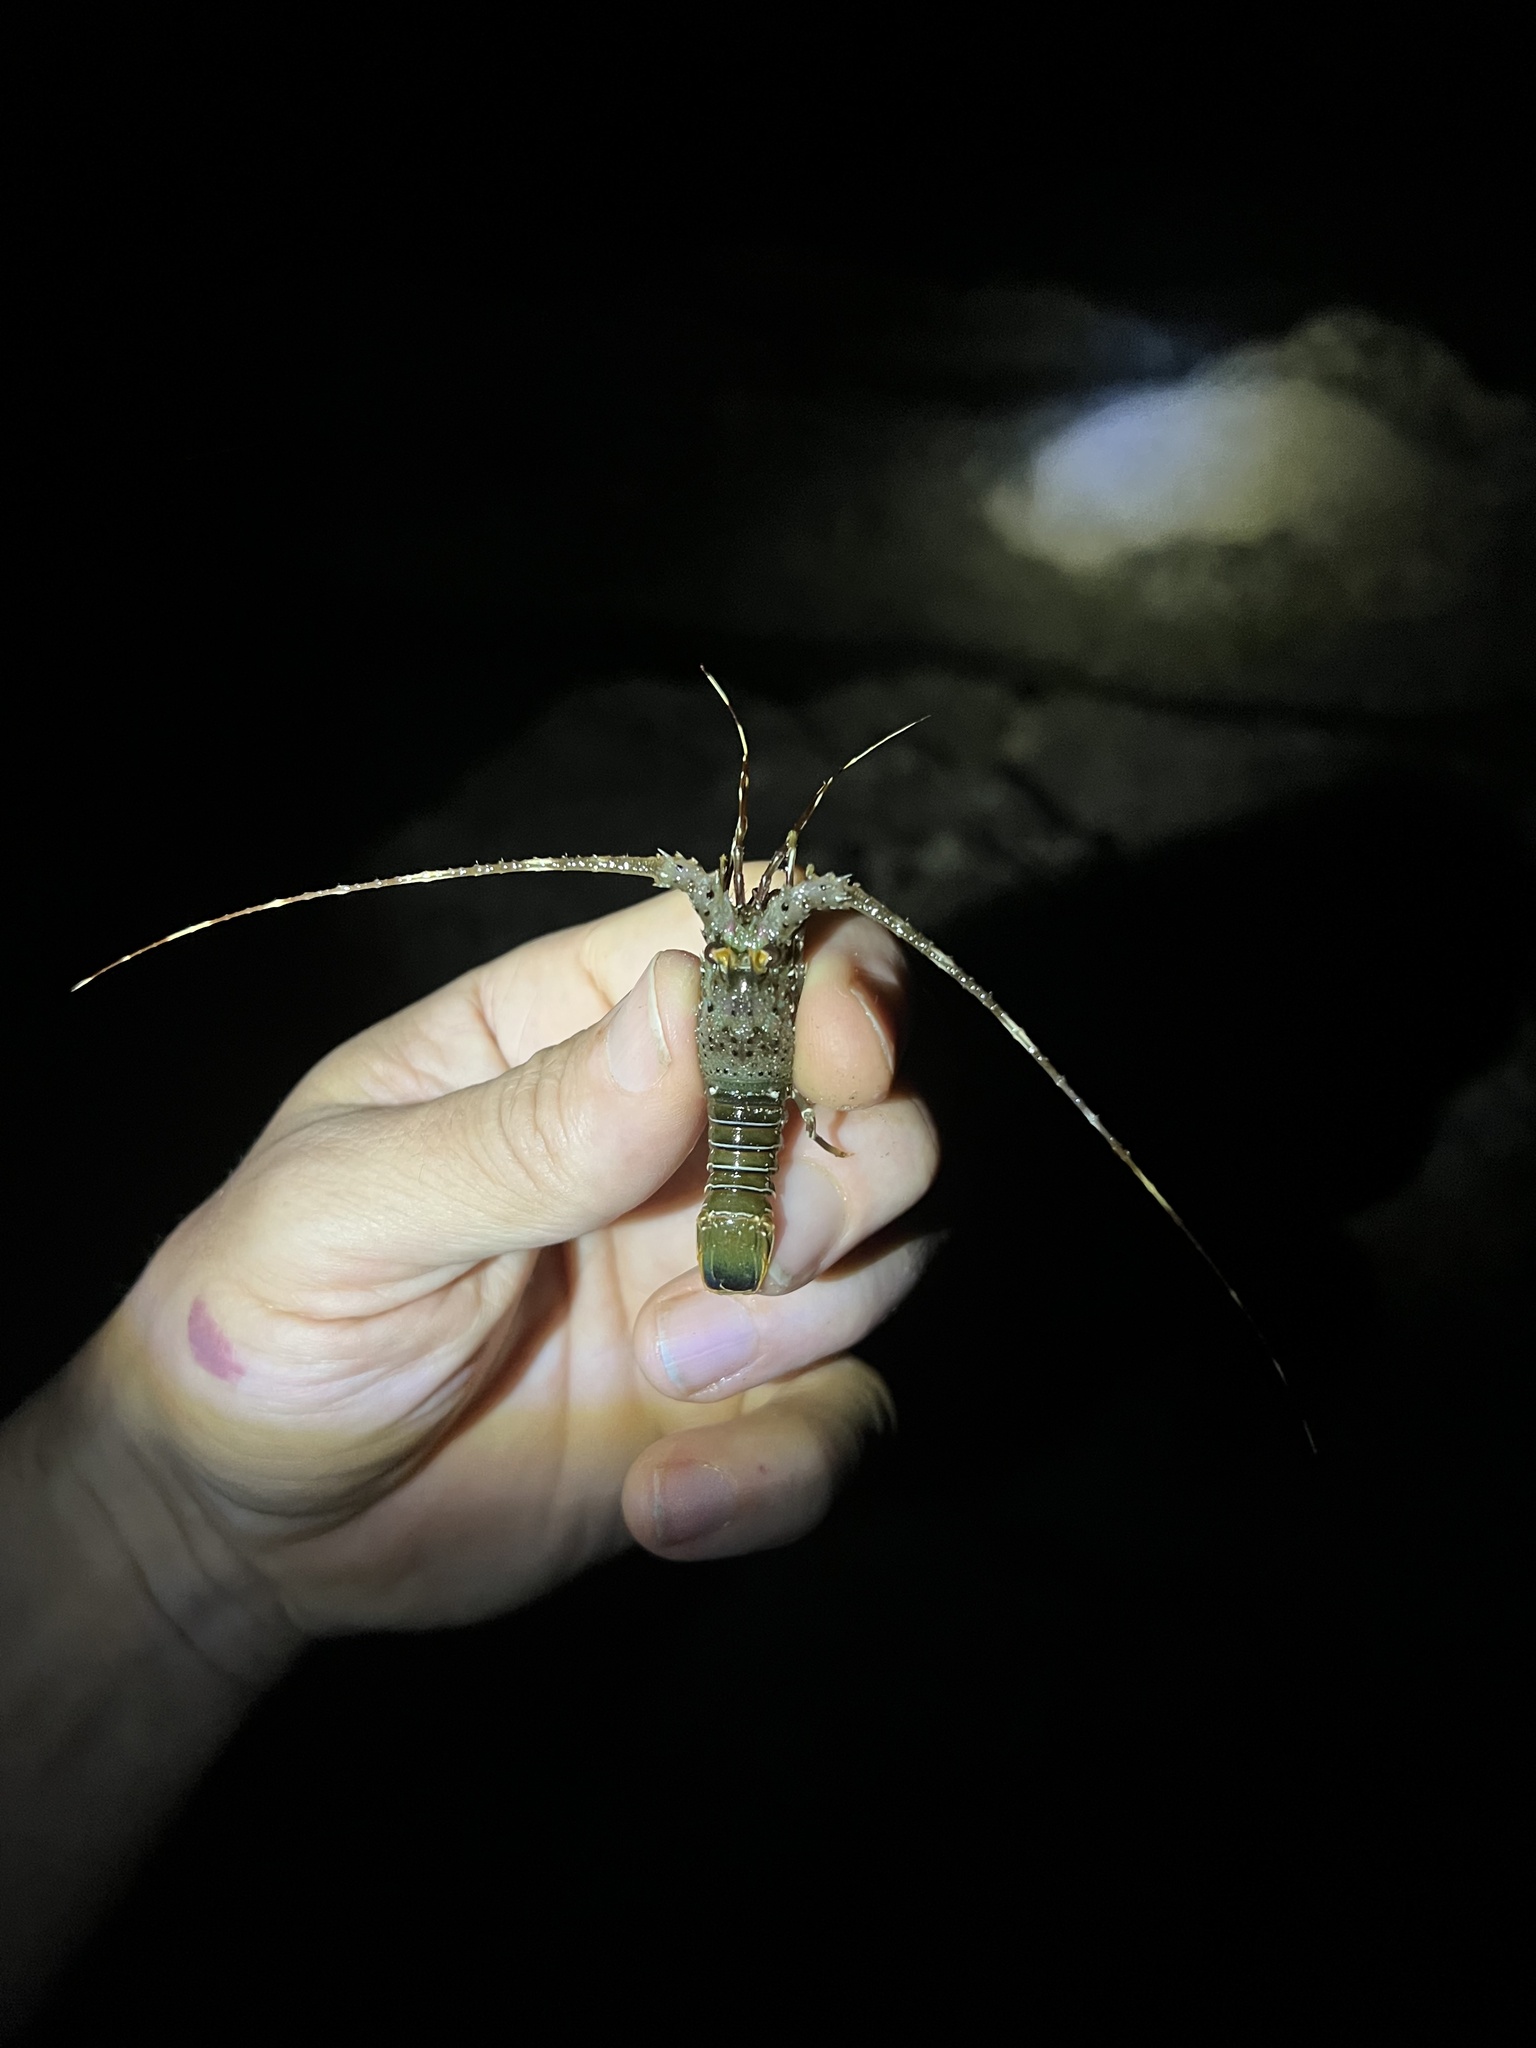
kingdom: Animalia
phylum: Arthropoda
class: Malacostraca
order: Decapoda
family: Palinuridae
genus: Panulirus
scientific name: Panulirus gracilis
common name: Green spiny lobster
